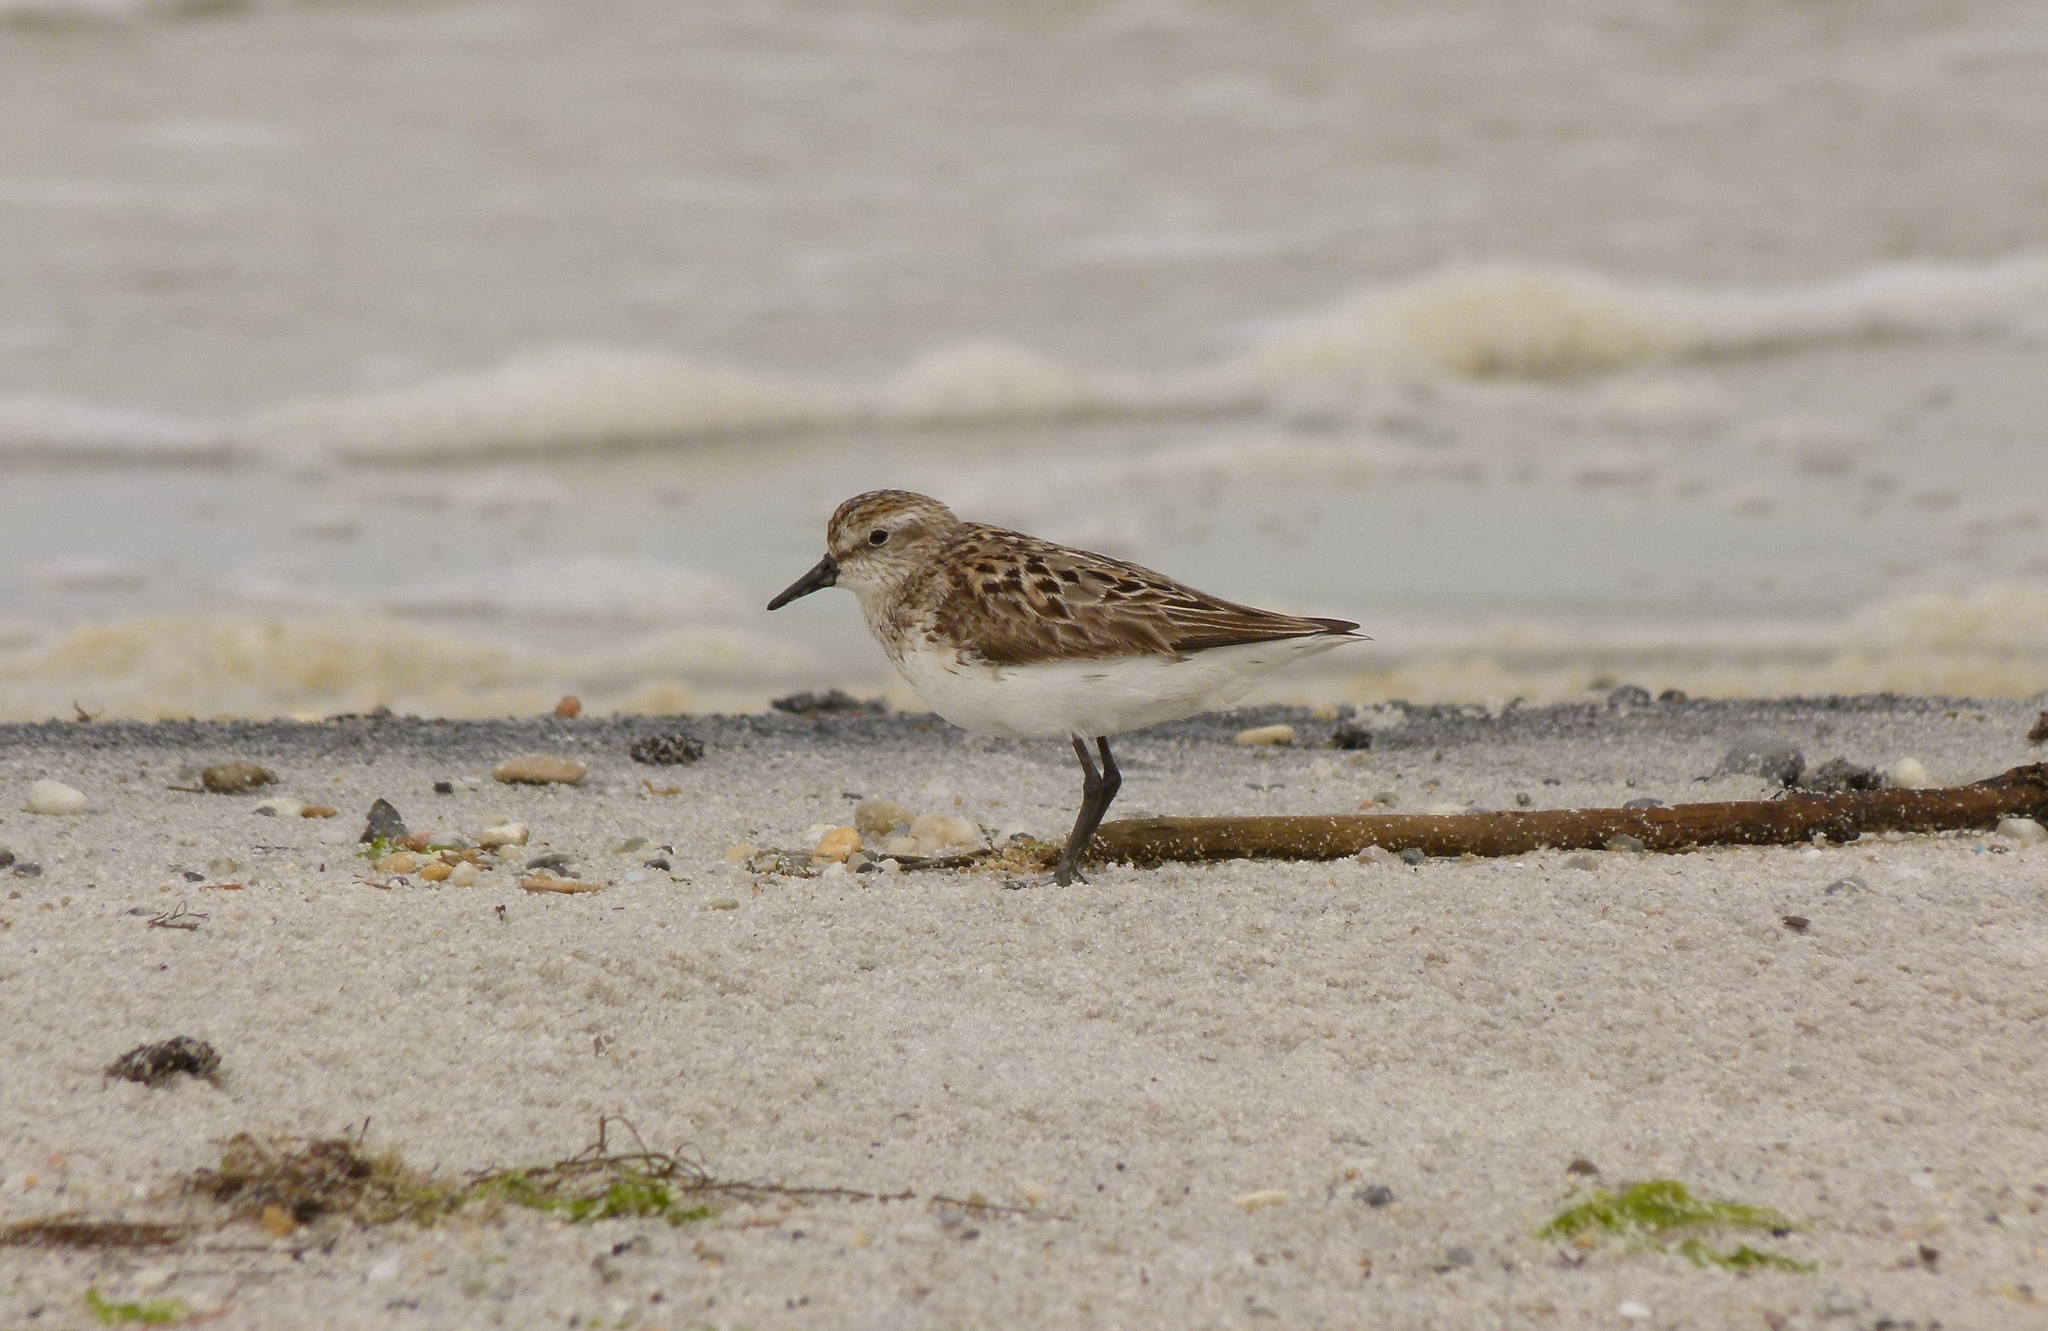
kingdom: Animalia
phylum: Chordata
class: Aves
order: Charadriiformes
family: Scolopacidae
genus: Calidris
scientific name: Calidris pusilla
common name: Semipalmated sandpiper
